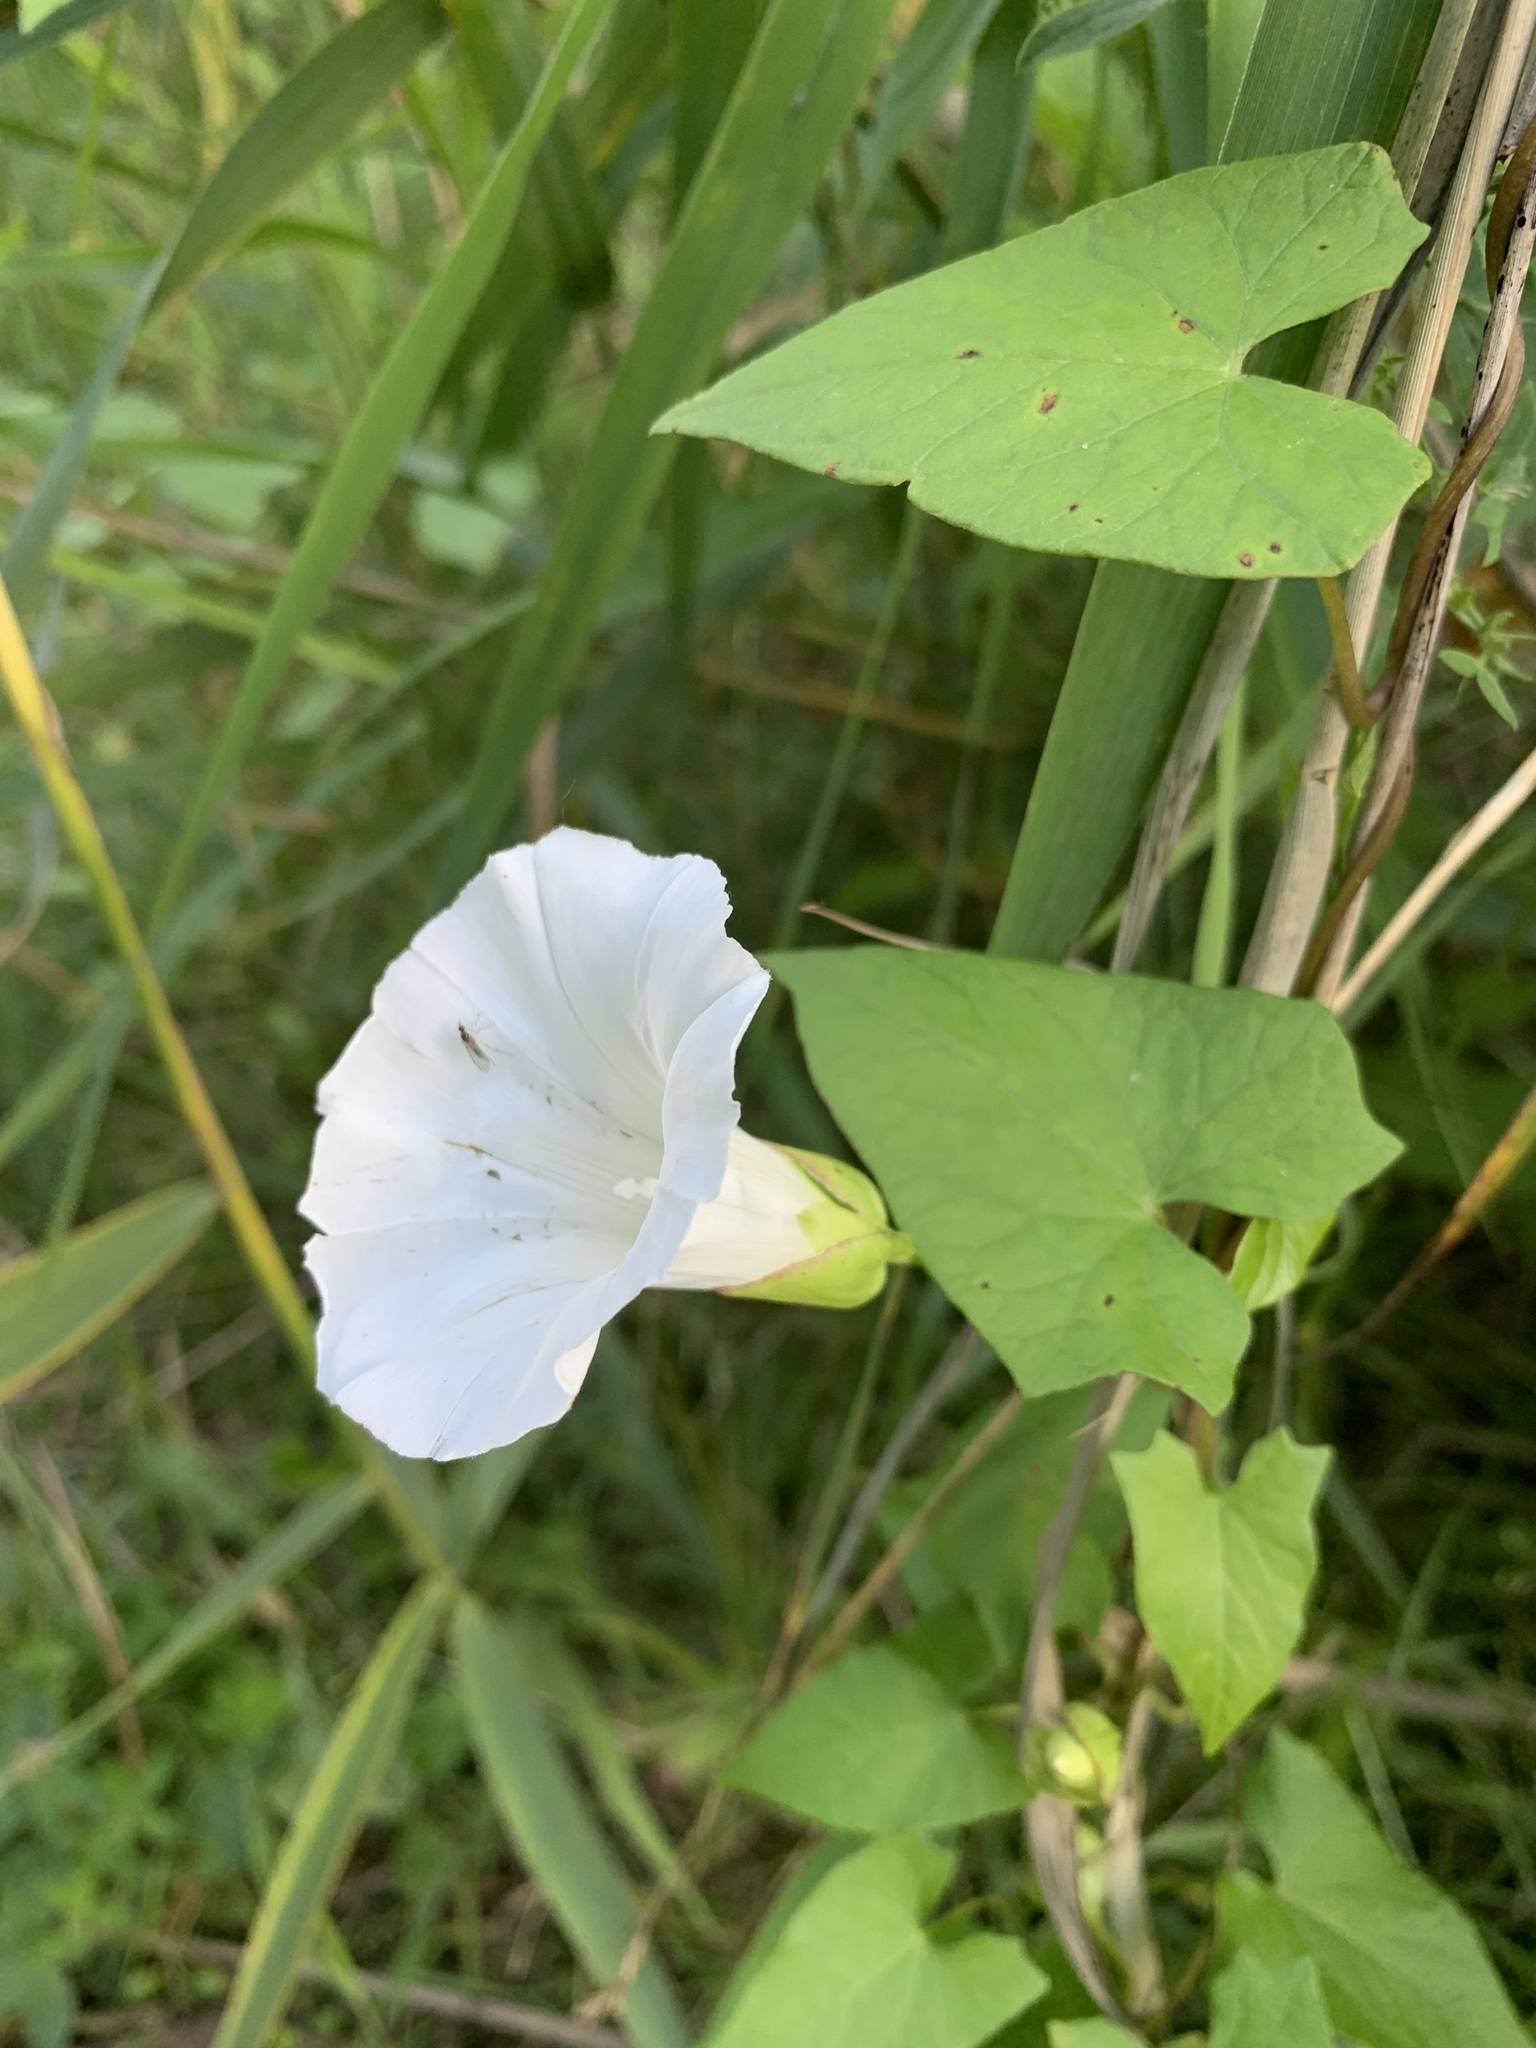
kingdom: Plantae
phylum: Tracheophyta
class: Magnoliopsida
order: Solanales
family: Convolvulaceae
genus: Calystegia
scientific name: Calystegia sepium
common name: Hedge bindweed
